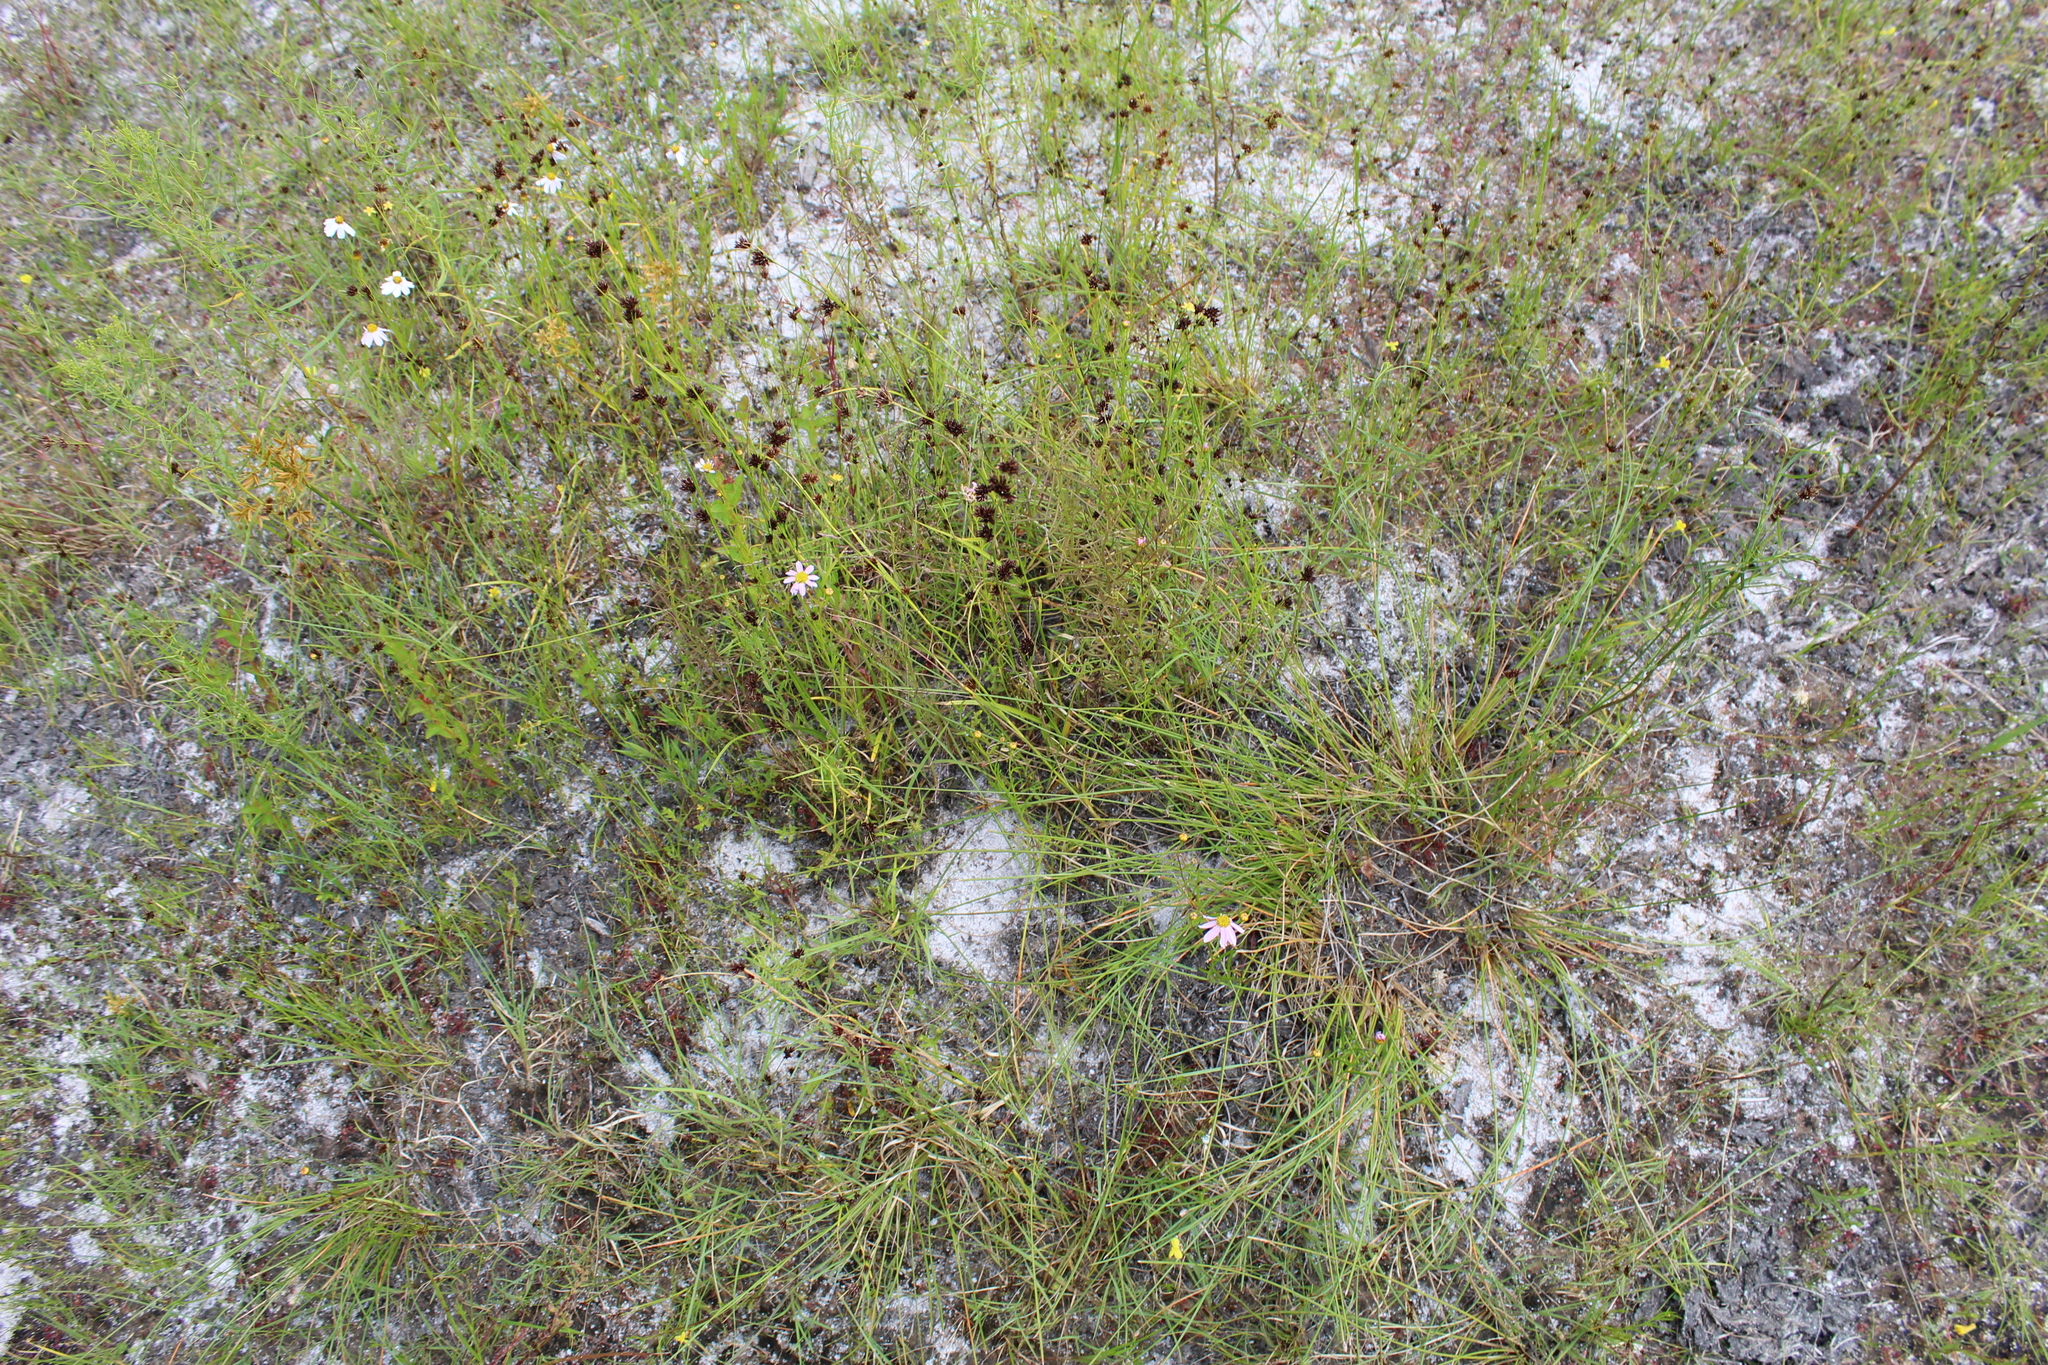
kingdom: Plantae
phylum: Tracheophyta
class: Magnoliopsida
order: Asterales
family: Asteraceae
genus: Coreopsis
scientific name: Coreopsis rosea
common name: Pink coreopsis
